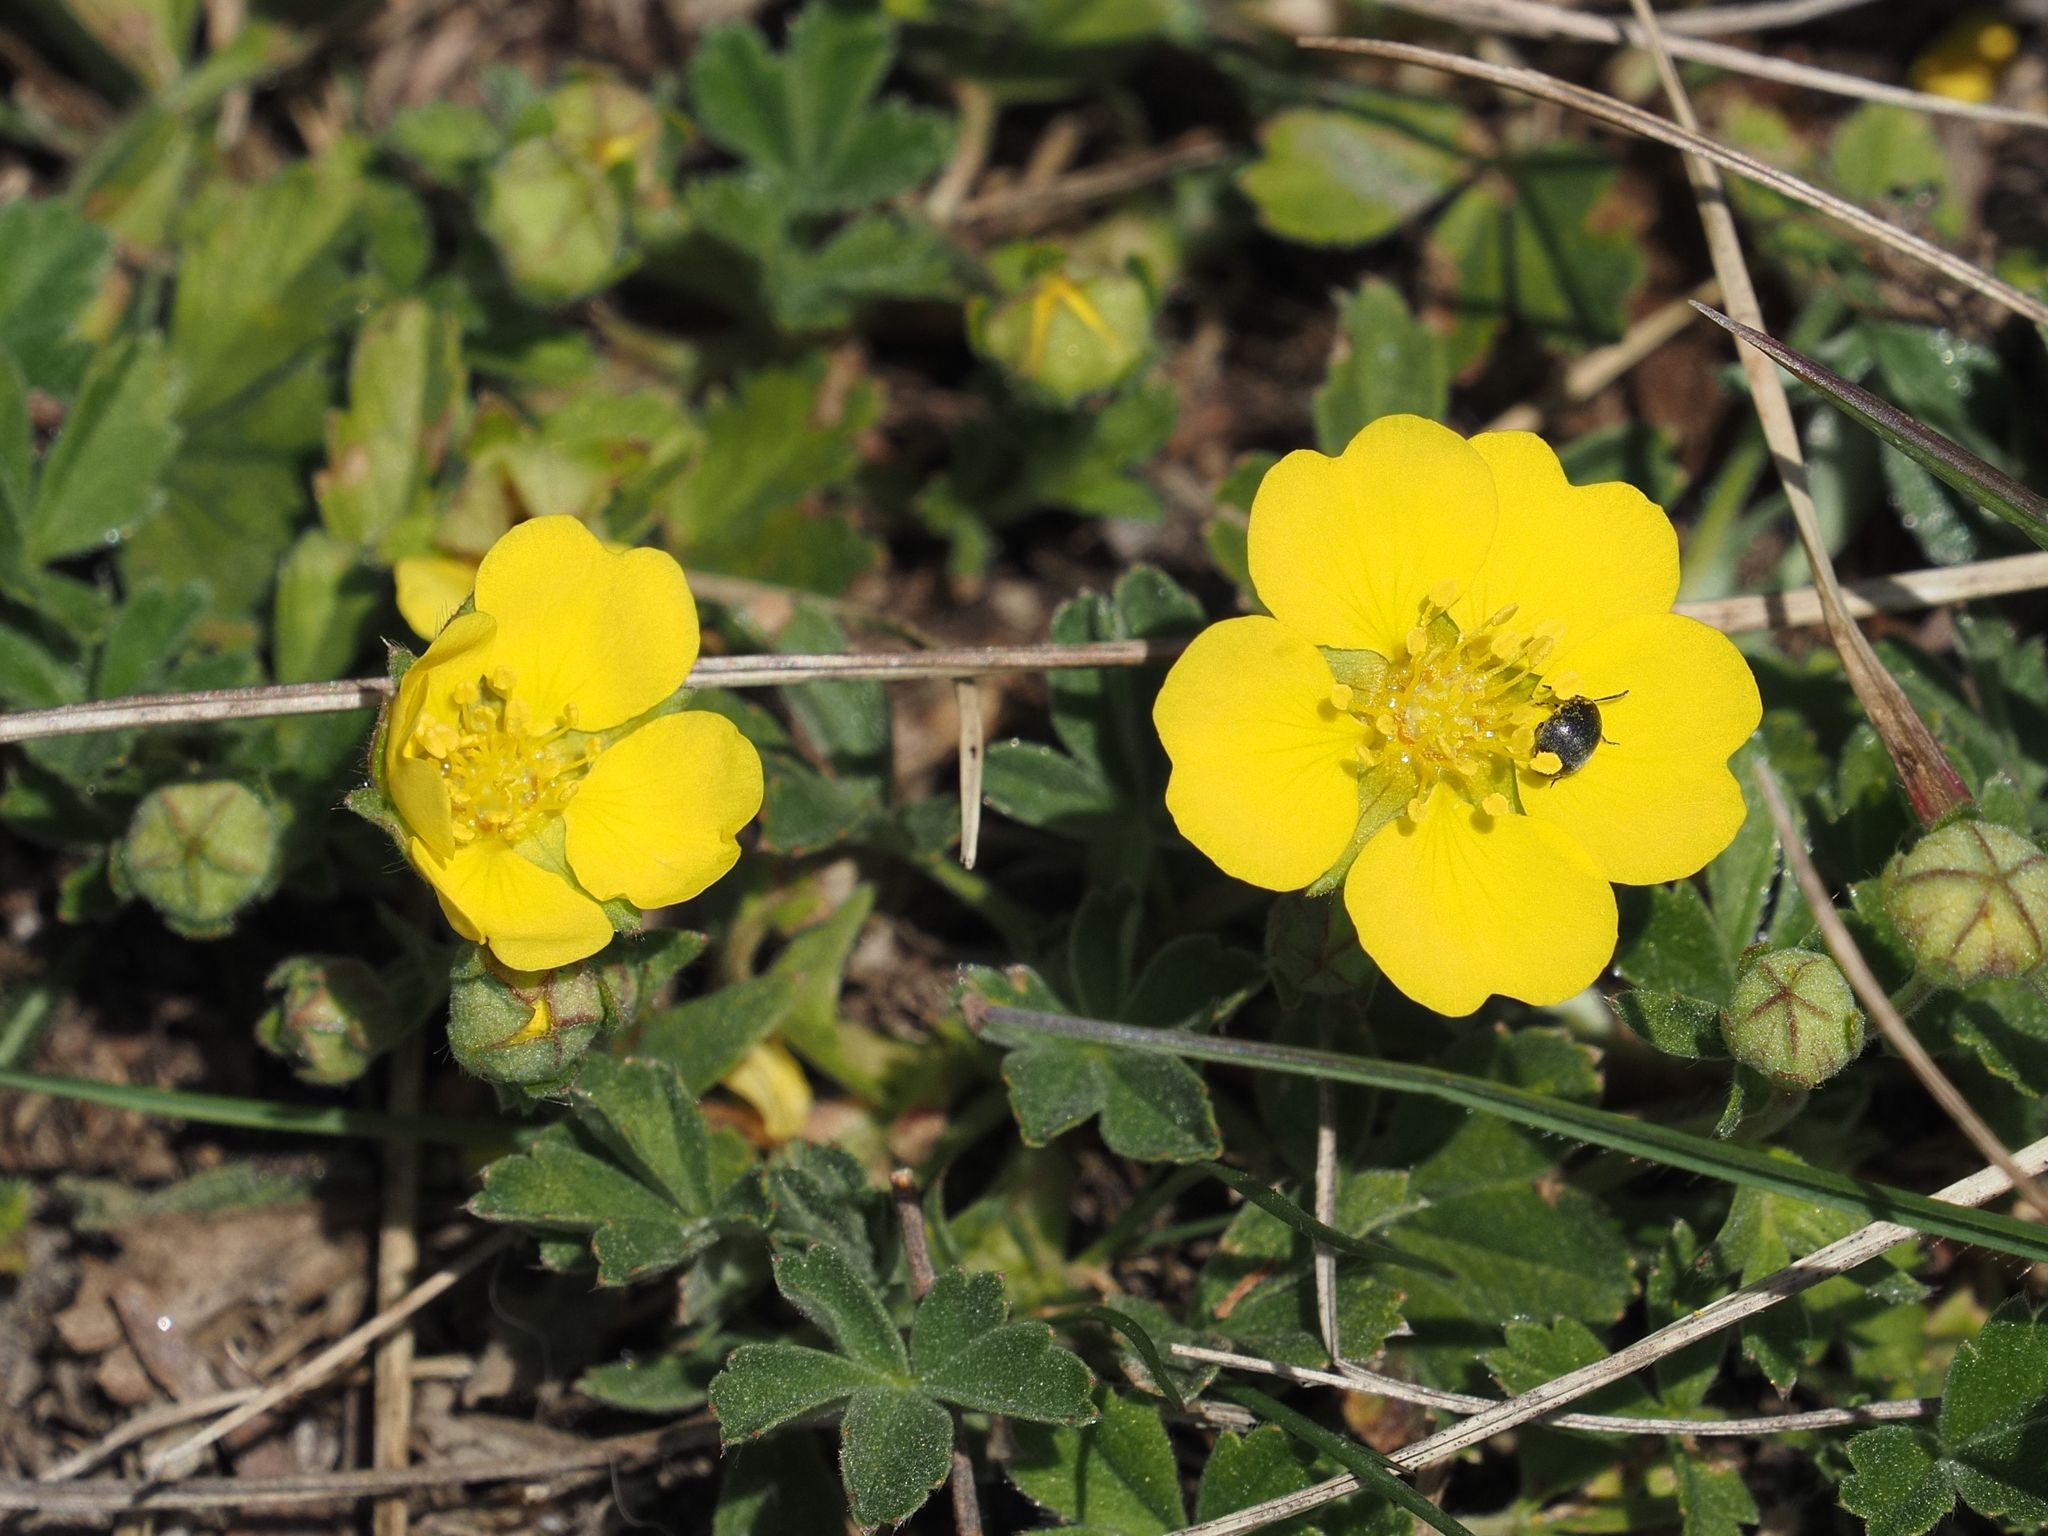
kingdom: Plantae
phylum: Tracheophyta
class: Magnoliopsida
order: Rosales
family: Rosaceae
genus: Potentilla
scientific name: Potentilla verna
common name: Spring cinquefoil
